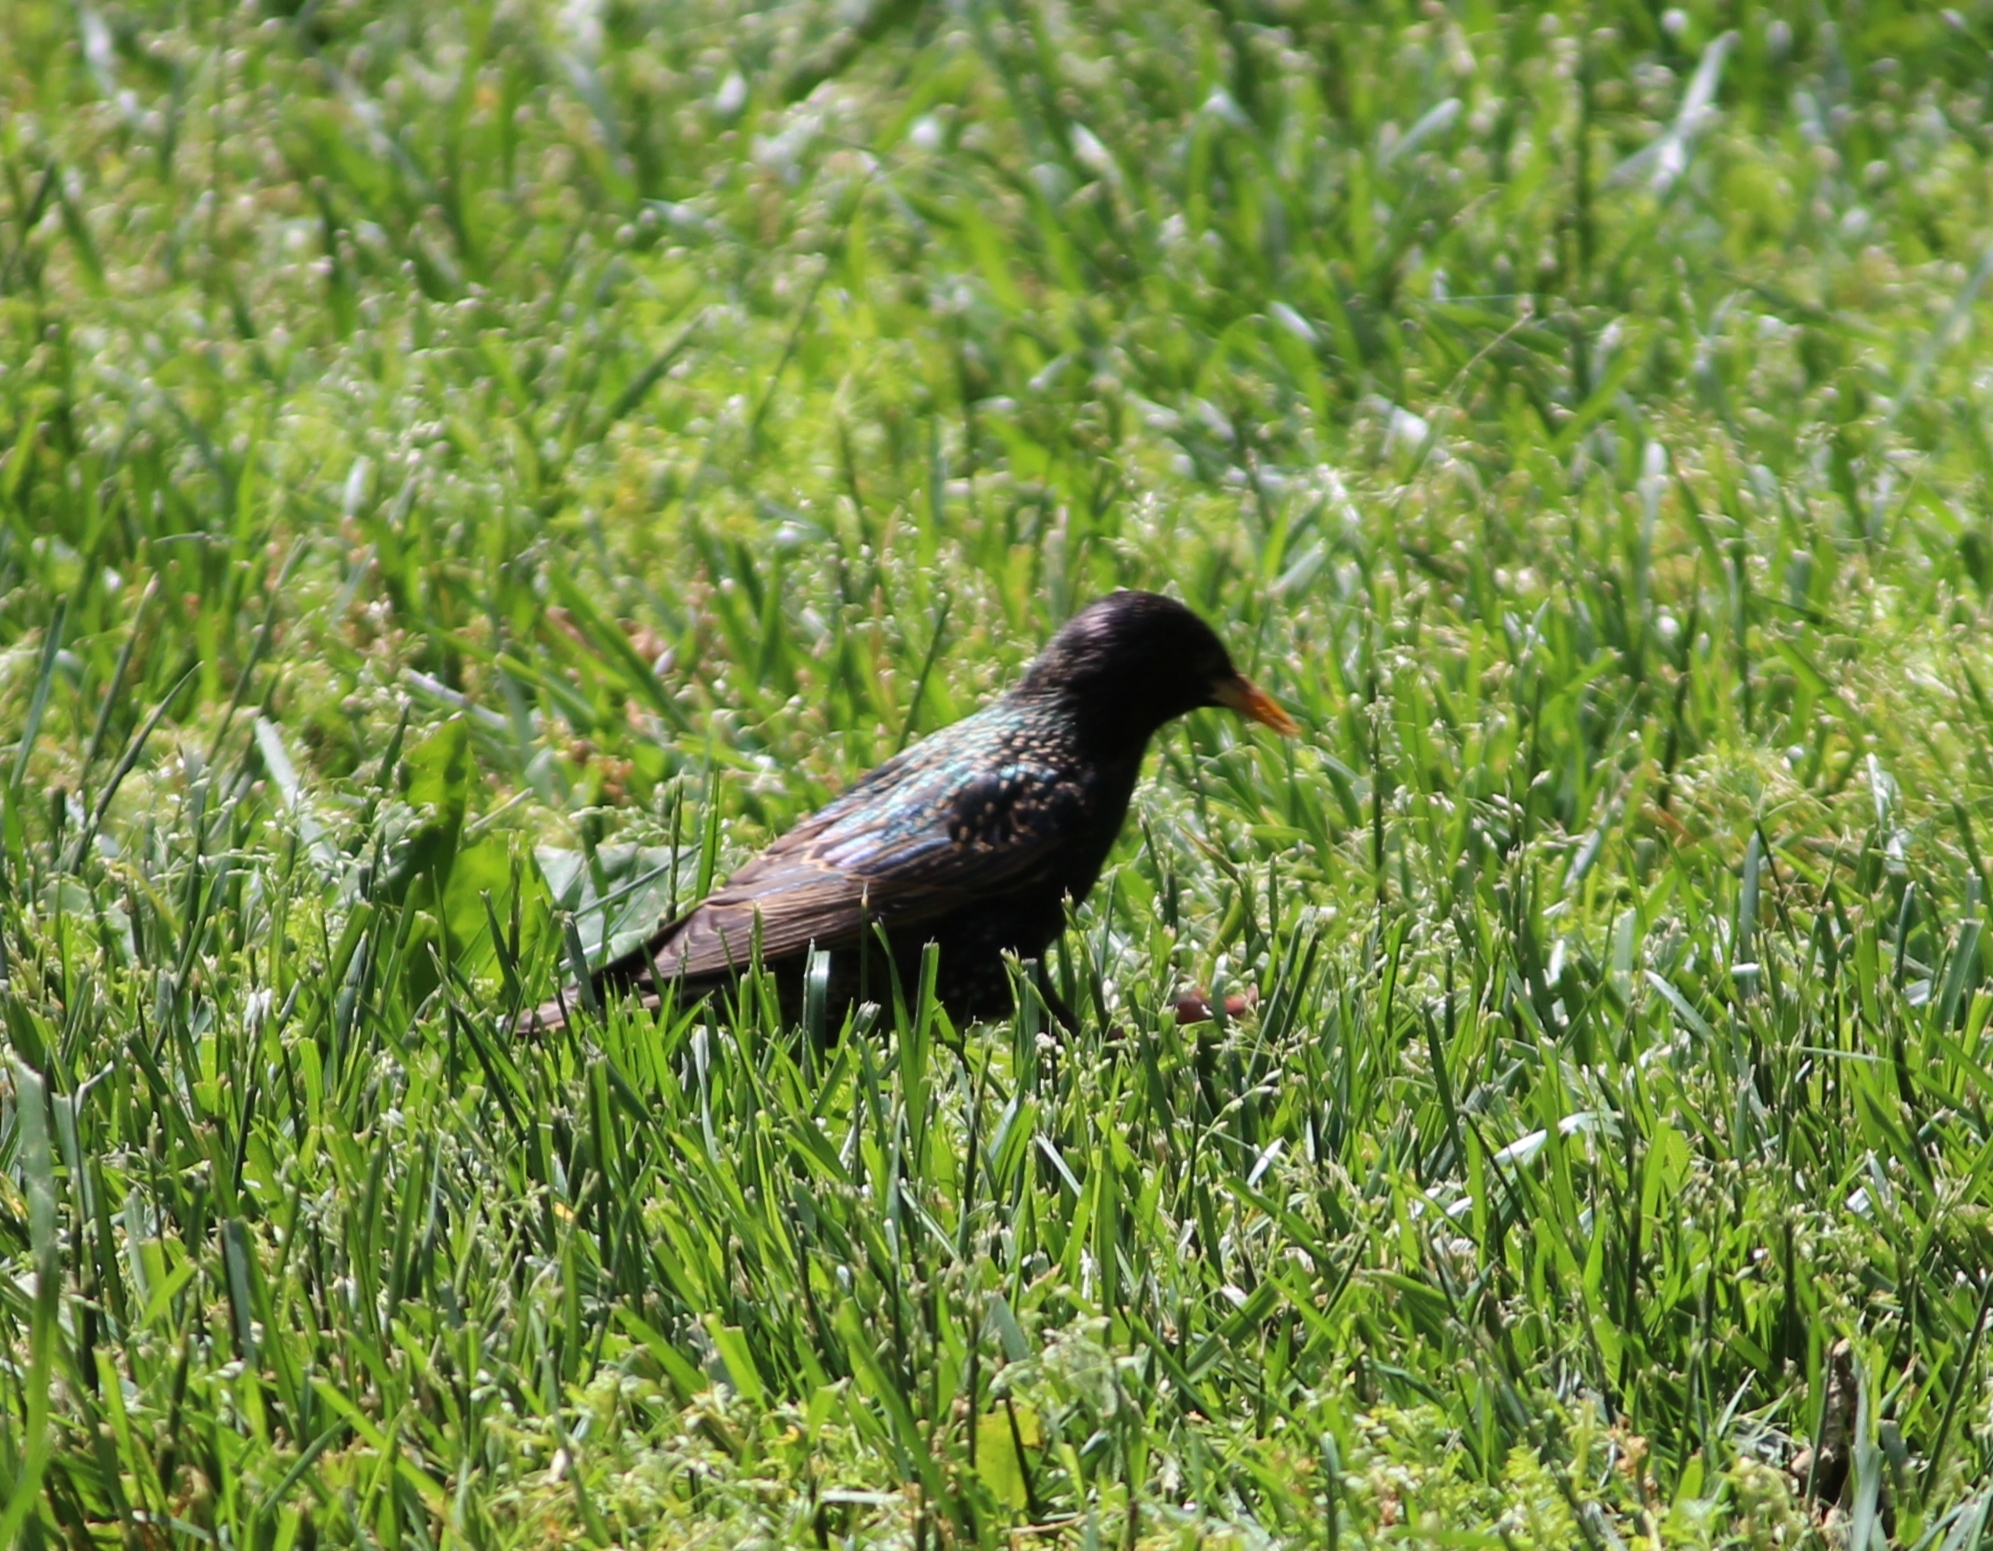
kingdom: Animalia
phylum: Chordata
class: Aves
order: Passeriformes
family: Sturnidae
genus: Sturnus
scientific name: Sturnus vulgaris
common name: Common starling
